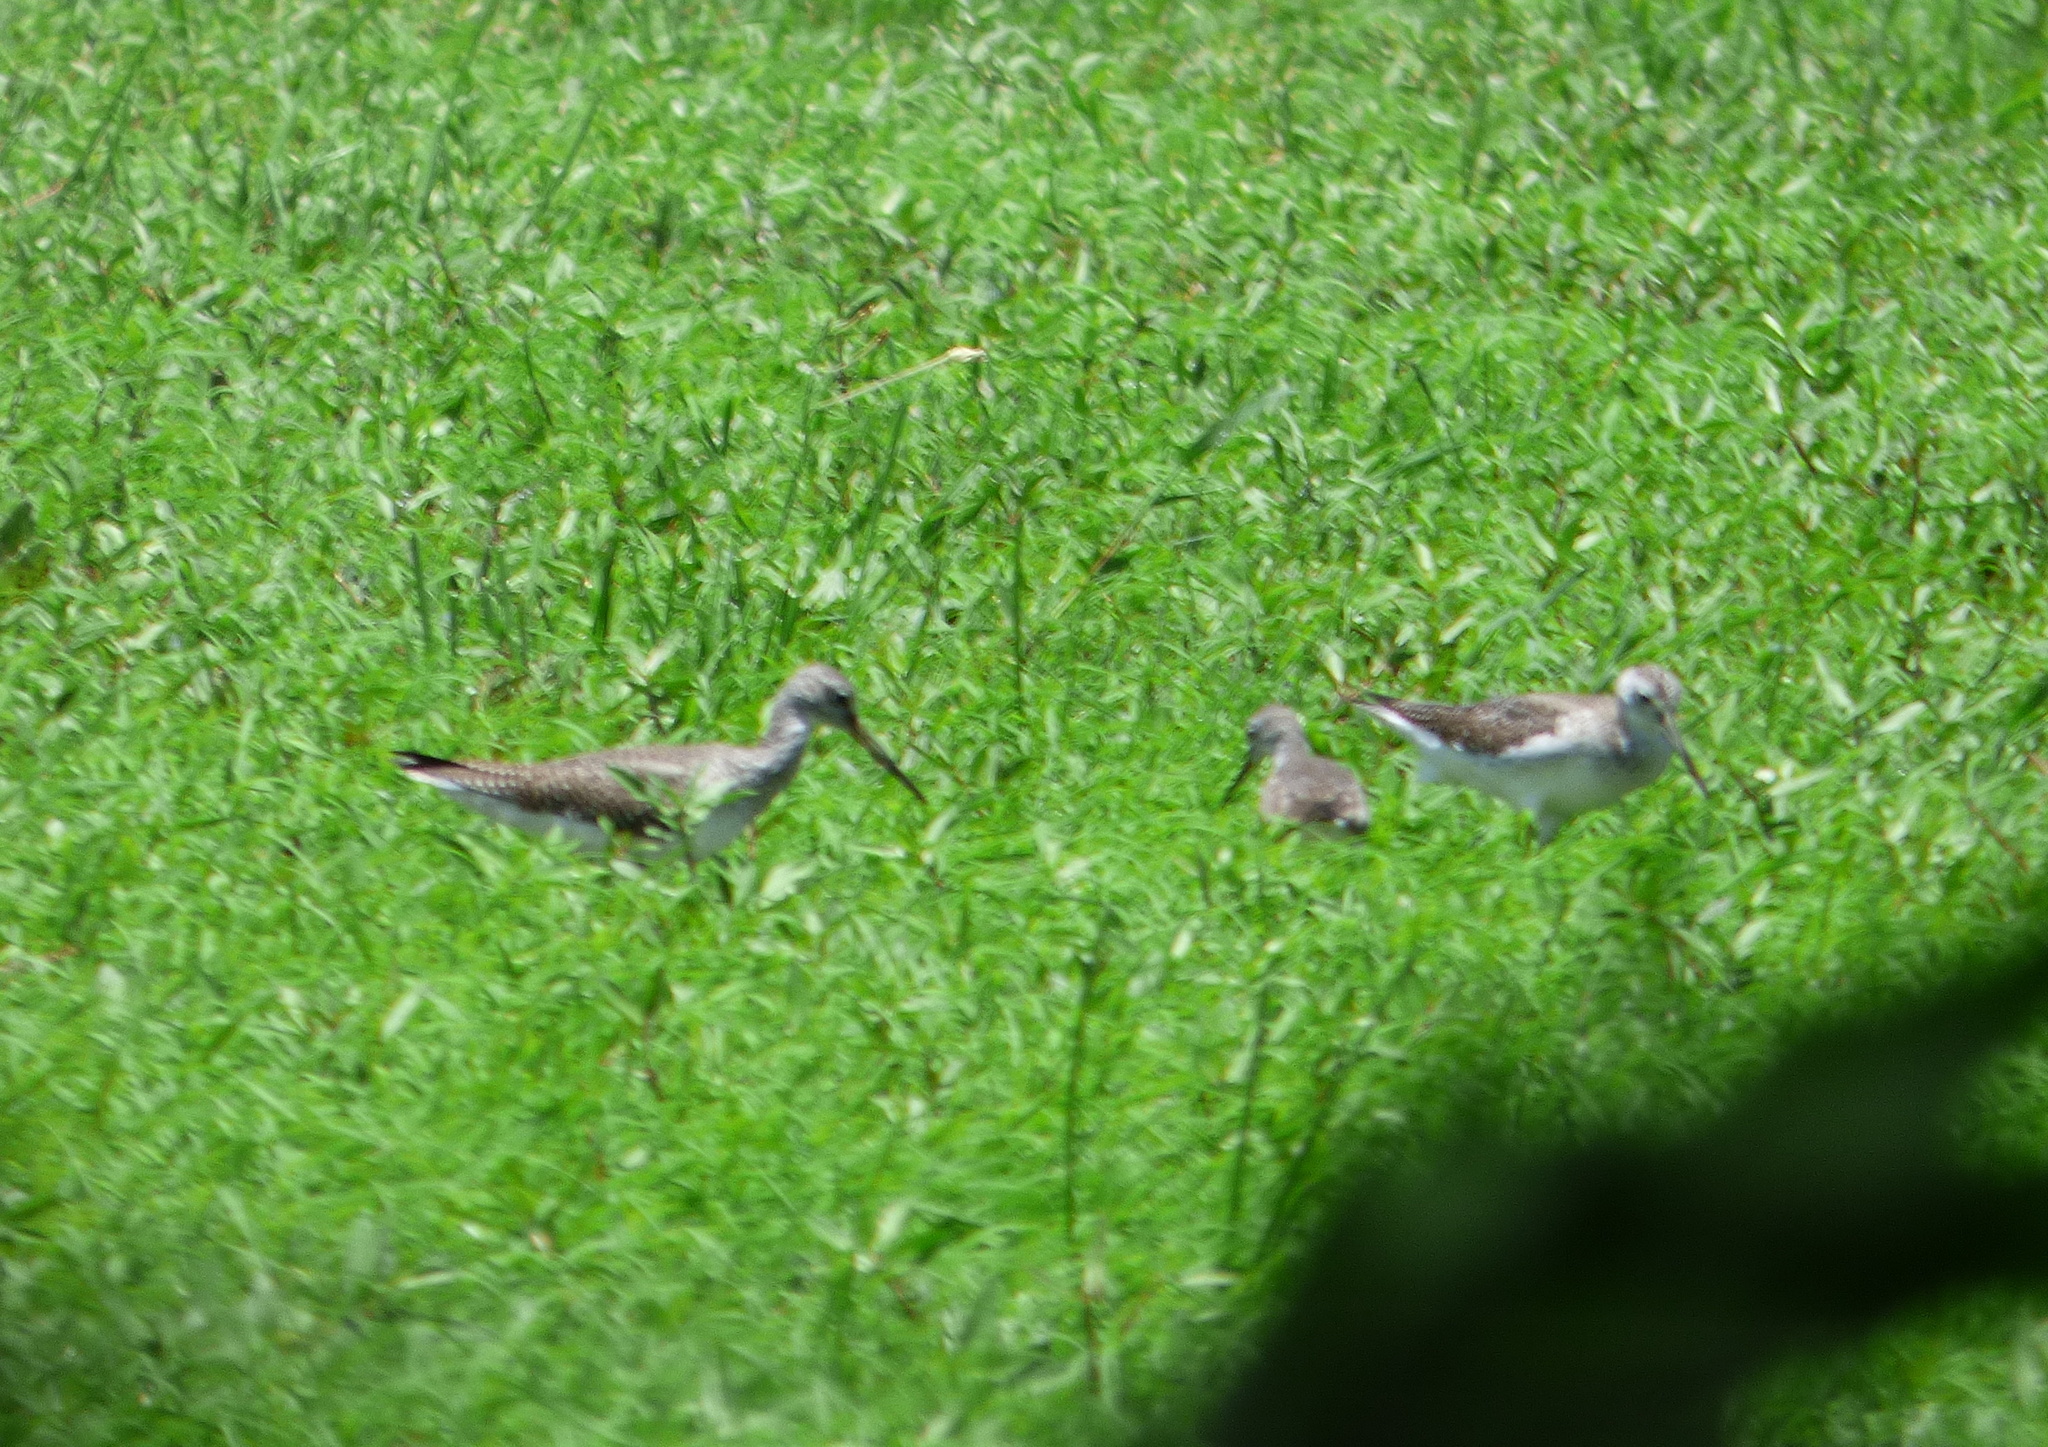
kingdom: Animalia
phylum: Chordata
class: Aves
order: Charadriiformes
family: Scolopacidae
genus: Tringa
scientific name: Tringa melanoleuca
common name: Greater yellowlegs
